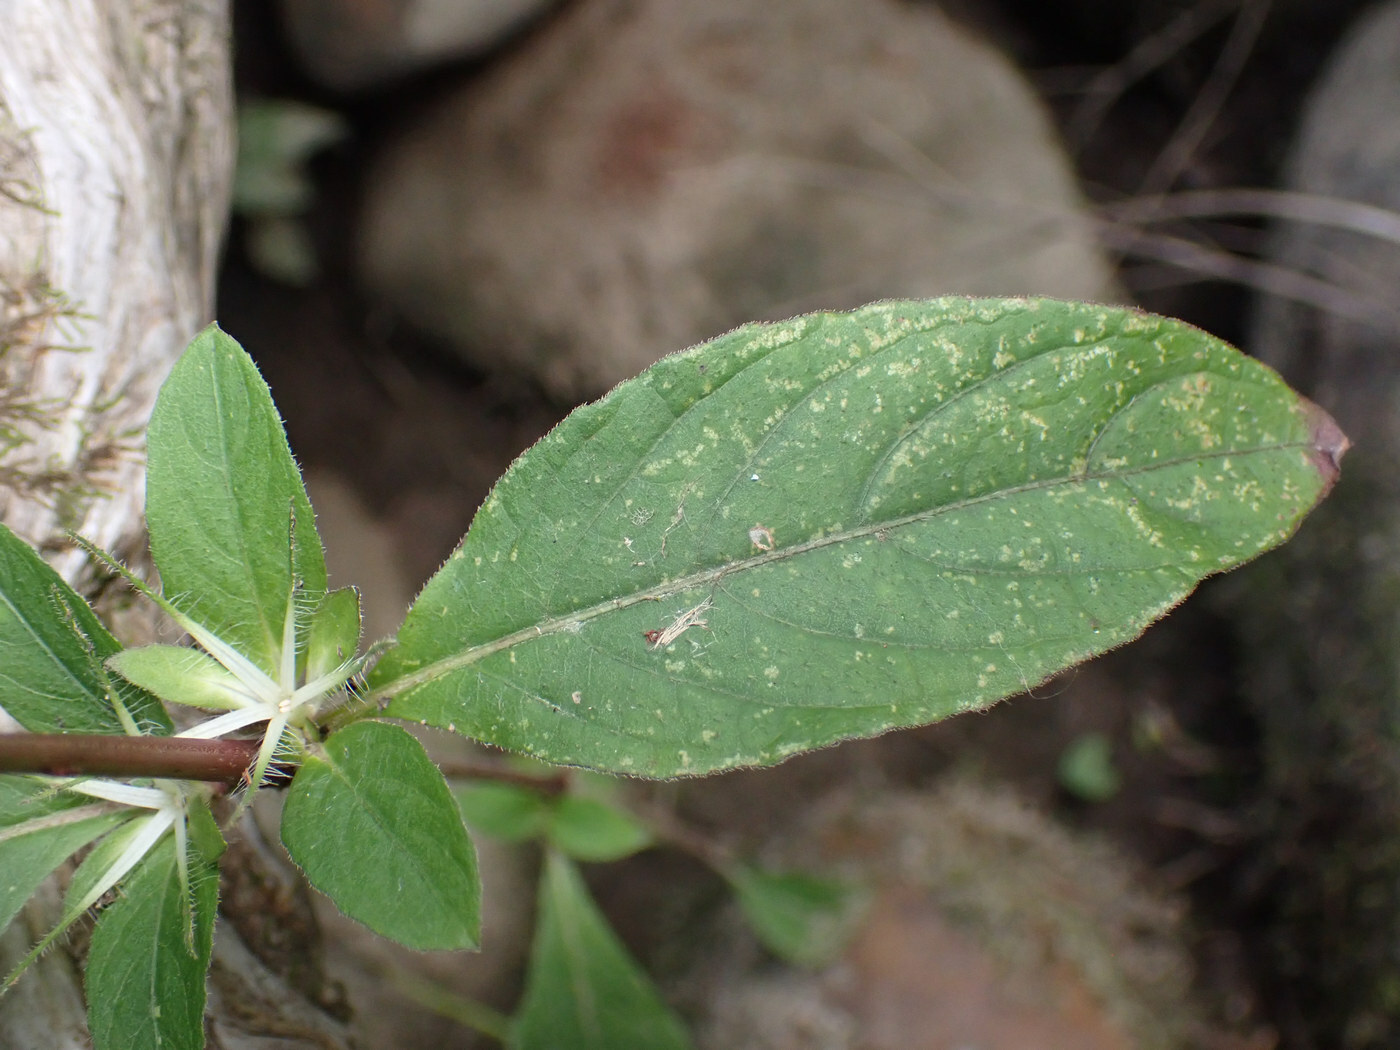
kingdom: Plantae
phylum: Tracheophyta
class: Magnoliopsida
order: Lamiales
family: Acanthaceae
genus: Ruellia
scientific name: Ruellia caroliniensis
